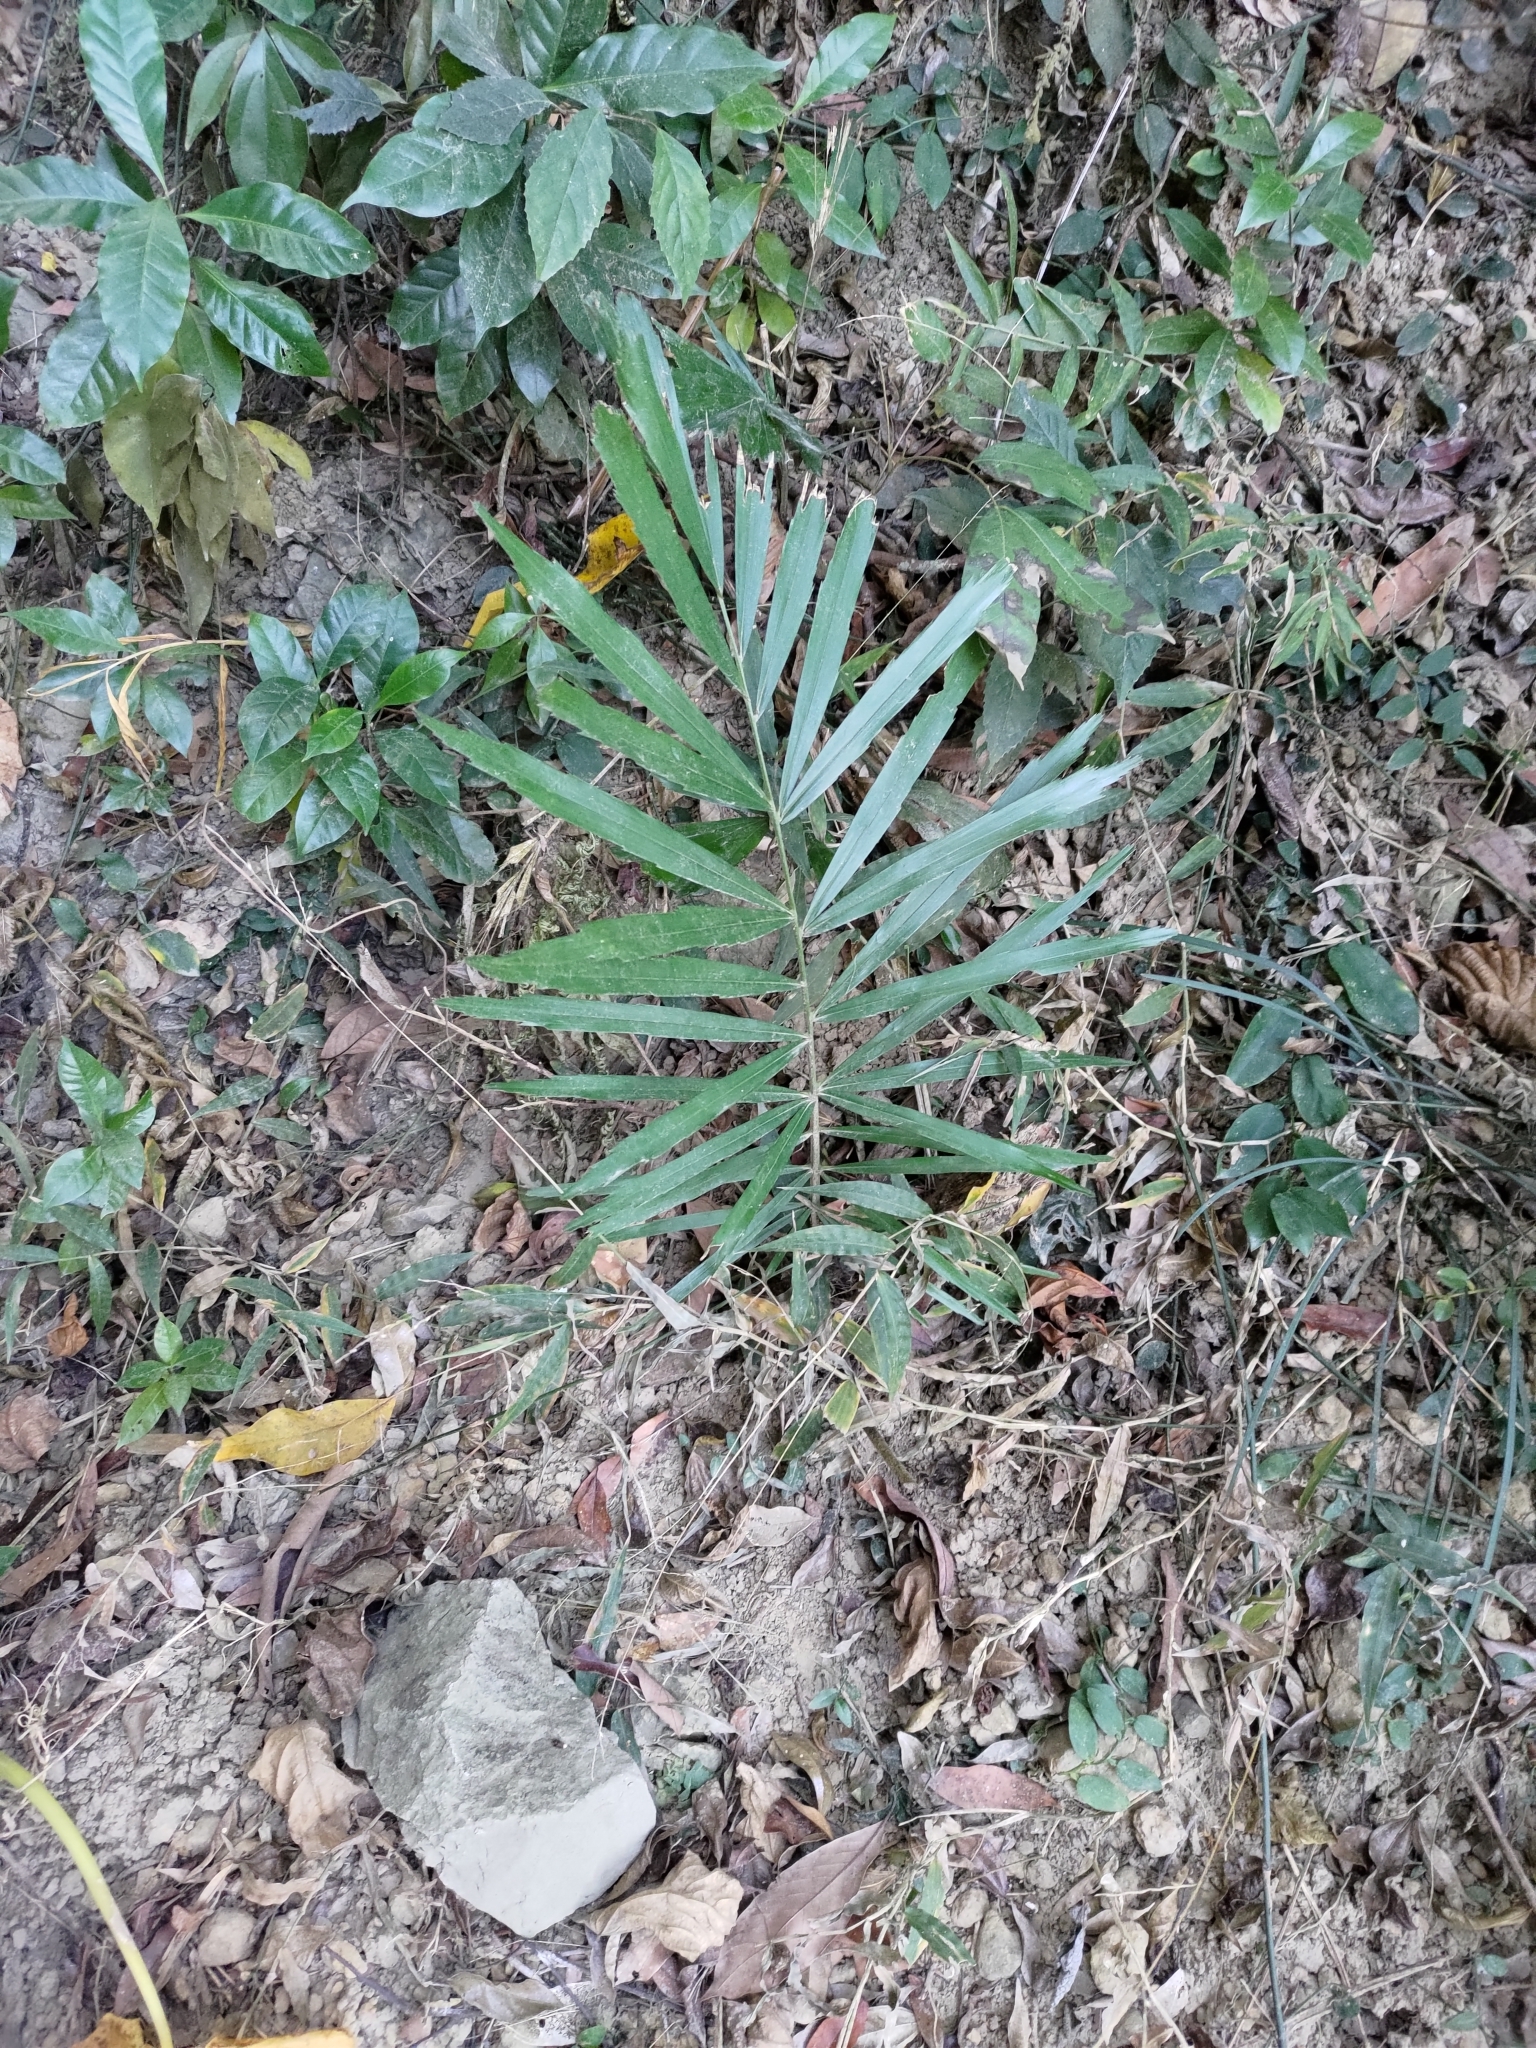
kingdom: Plantae
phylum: Tracheophyta
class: Liliopsida
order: Arecales
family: Arecaceae
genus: Arenga
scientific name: Arenga engleri
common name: Formosan sugar palm
